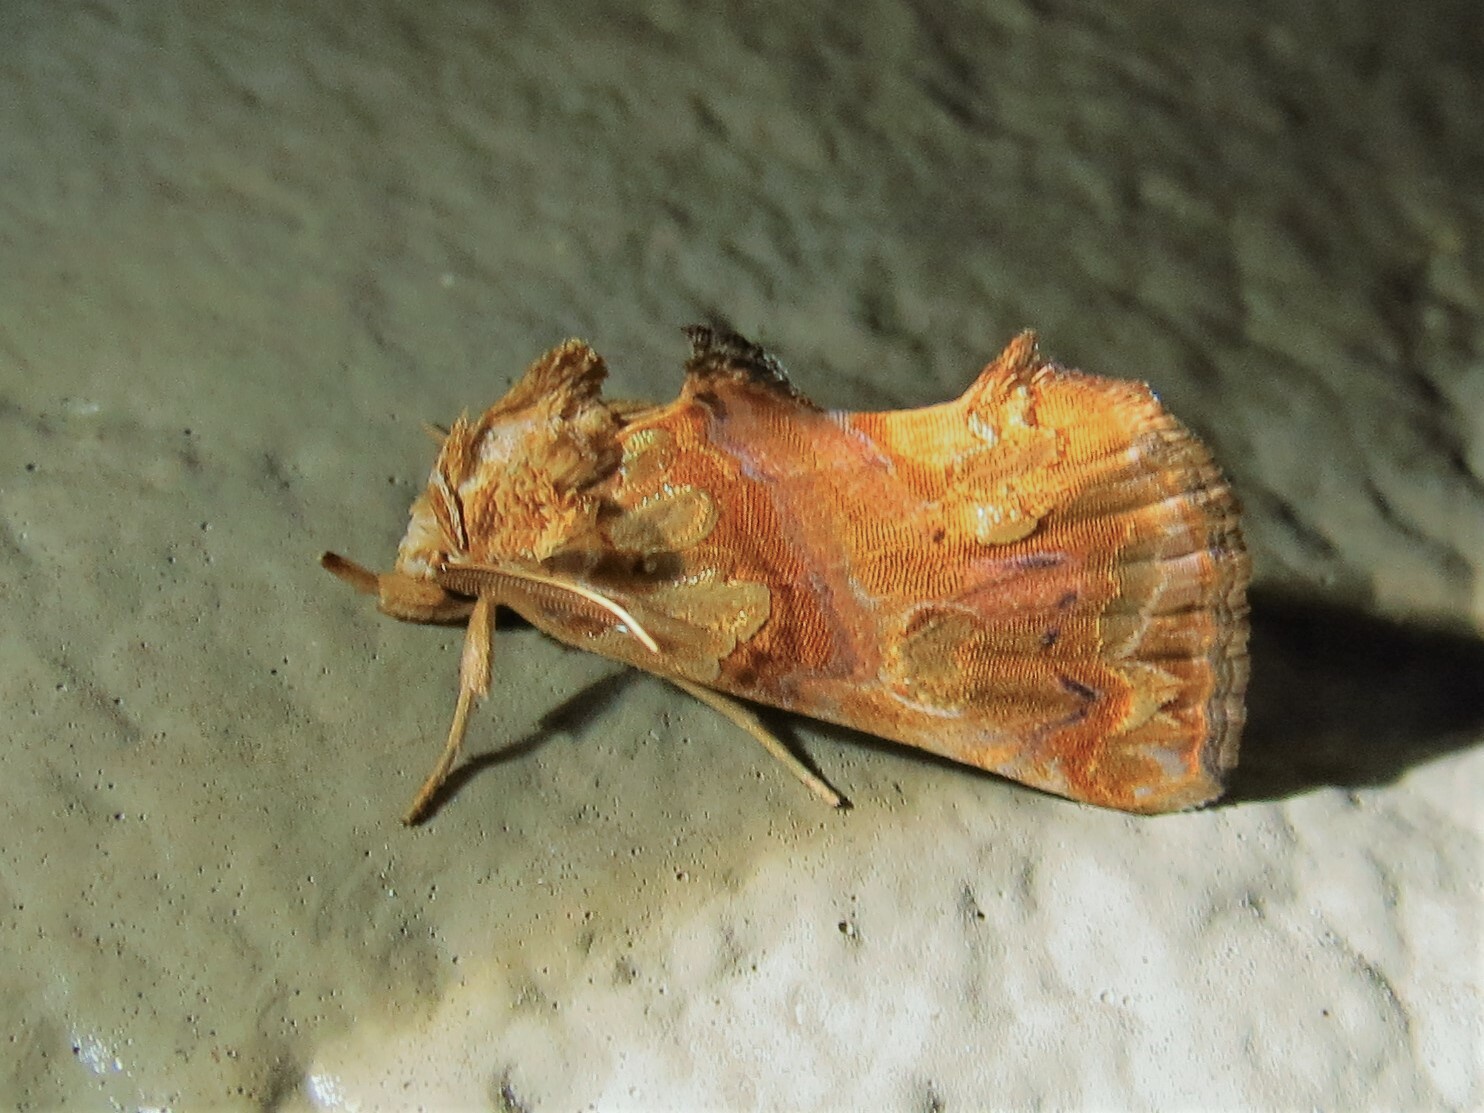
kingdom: Animalia
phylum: Arthropoda
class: Insecta
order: Lepidoptera
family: Erebidae
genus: Plusiodonta
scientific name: Plusiodonta compressipalpis
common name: Moonseed moth
